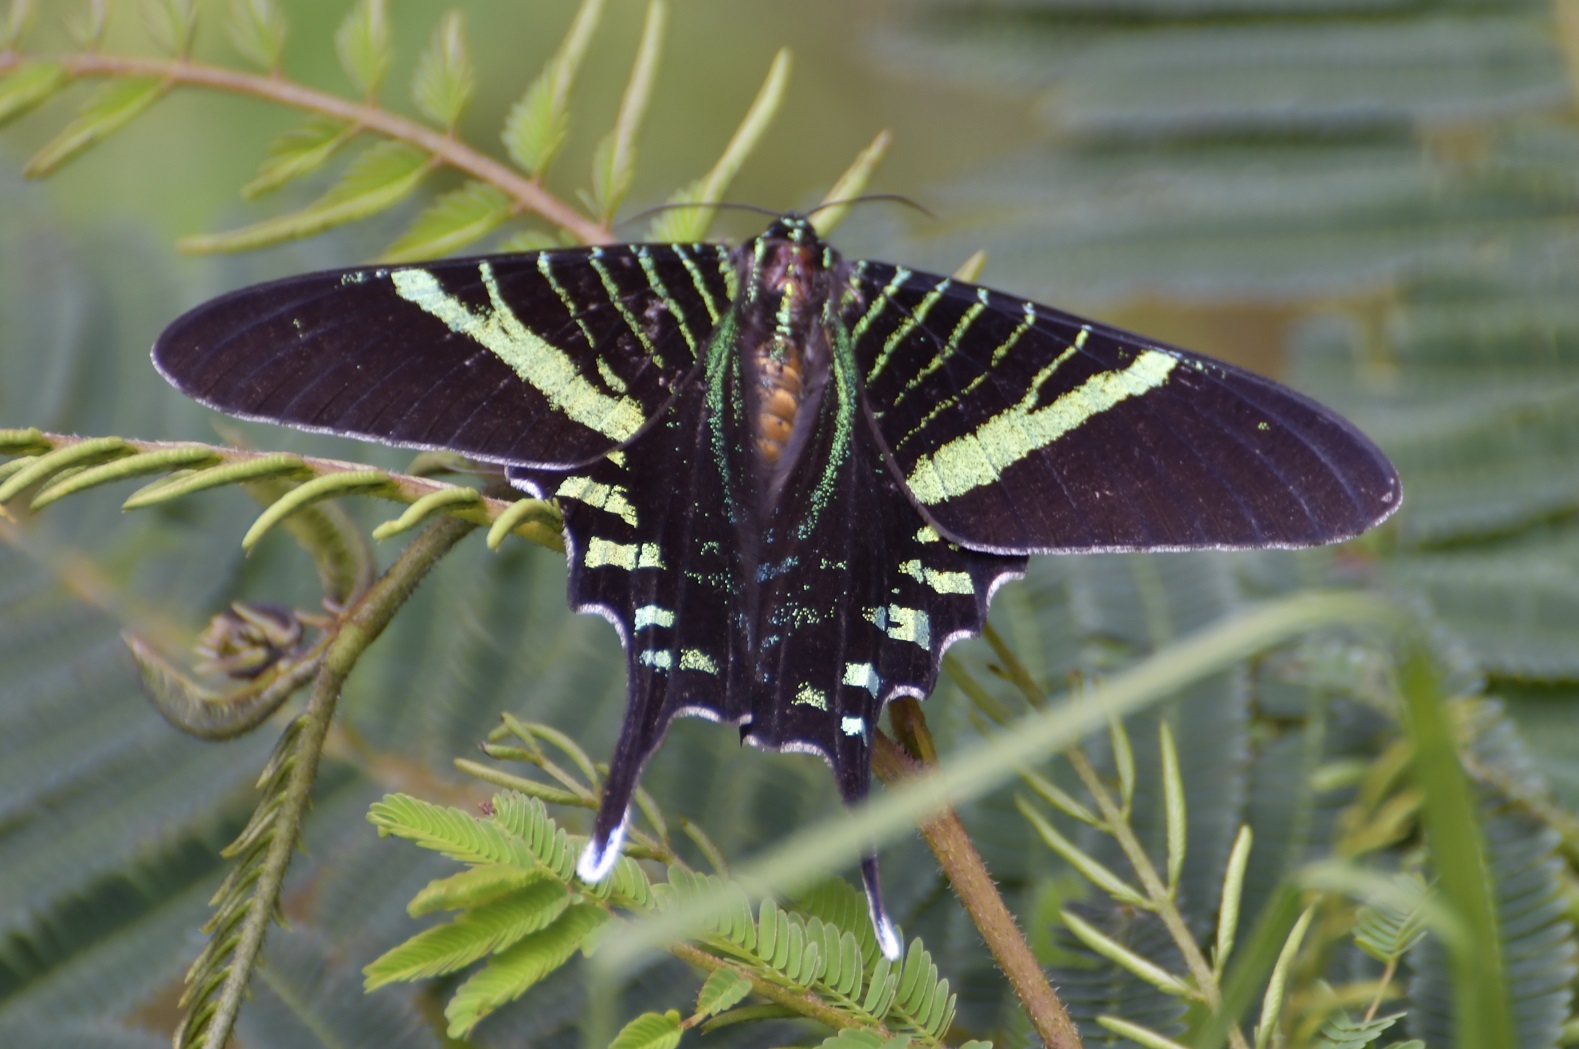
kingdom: Animalia
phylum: Arthropoda
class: Insecta
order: Lepidoptera
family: Uraniidae
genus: Urania
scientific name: Urania fulgens
